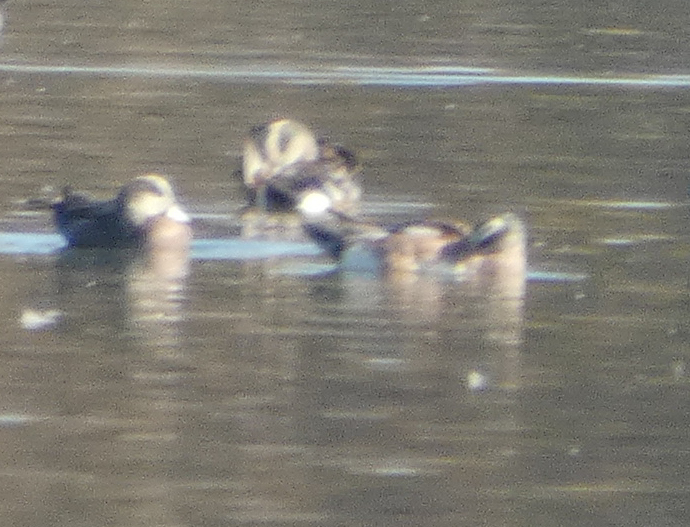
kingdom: Animalia
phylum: Chordata
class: Aves
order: Anseriformes
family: Anatidae
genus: Mareca
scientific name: Mareca americana
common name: American wigeon
